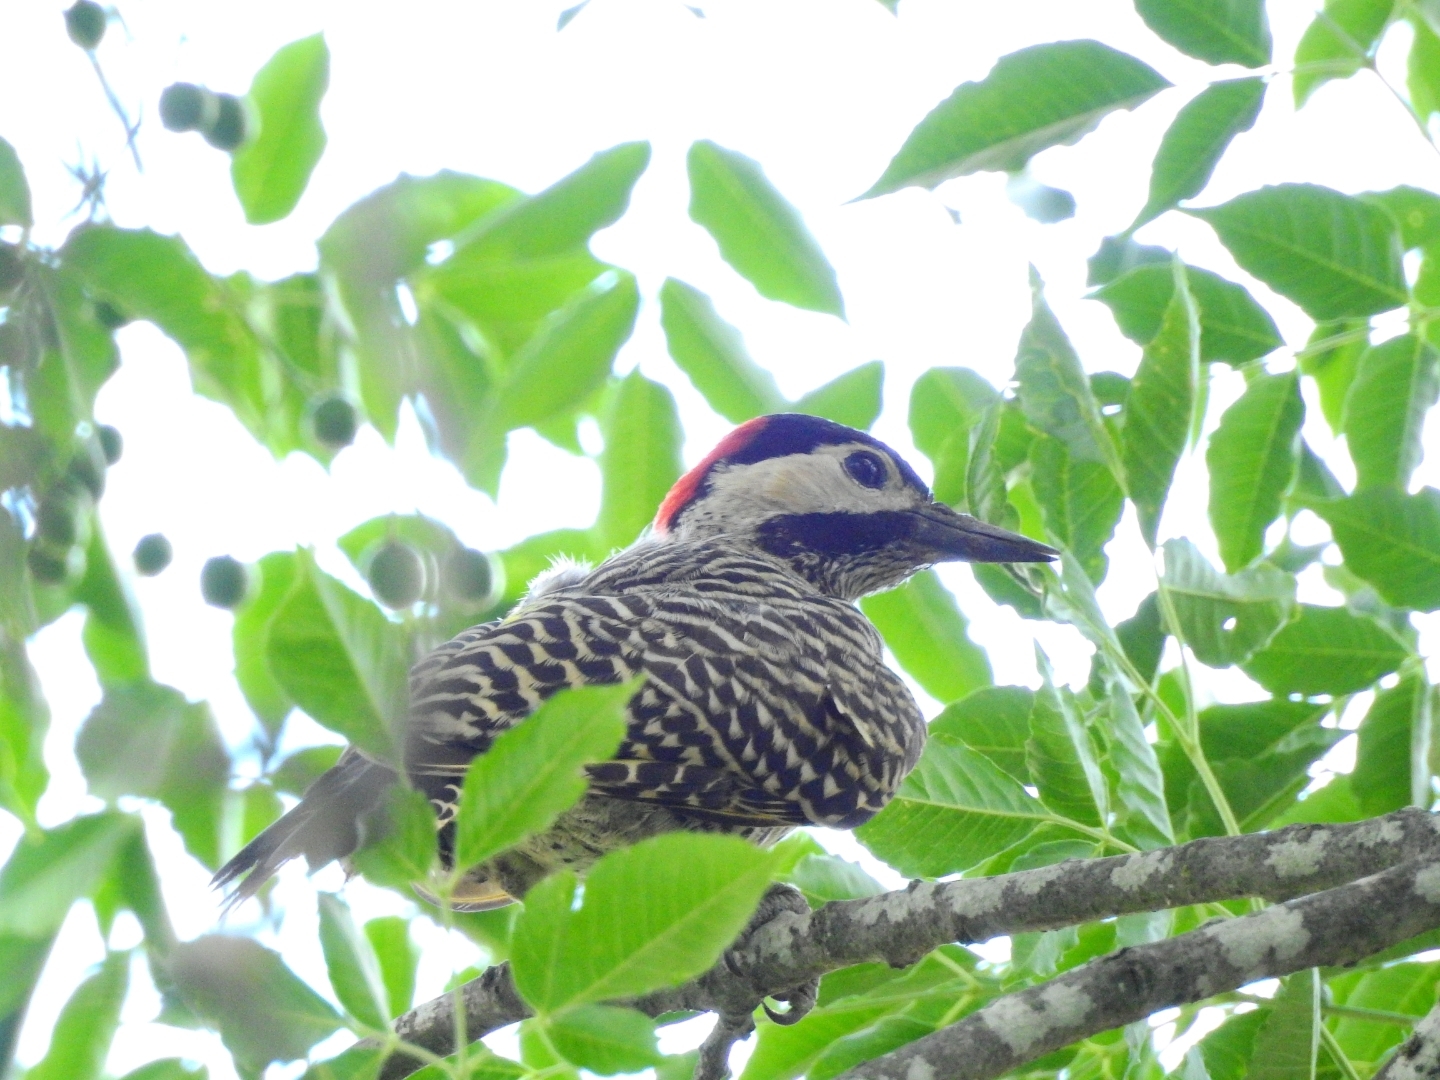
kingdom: Animalia
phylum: Chordata
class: Aves
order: Piciformes
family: Picidae
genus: Colaptes
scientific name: Colaptes melanochloros
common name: Green-barred woodpecker
